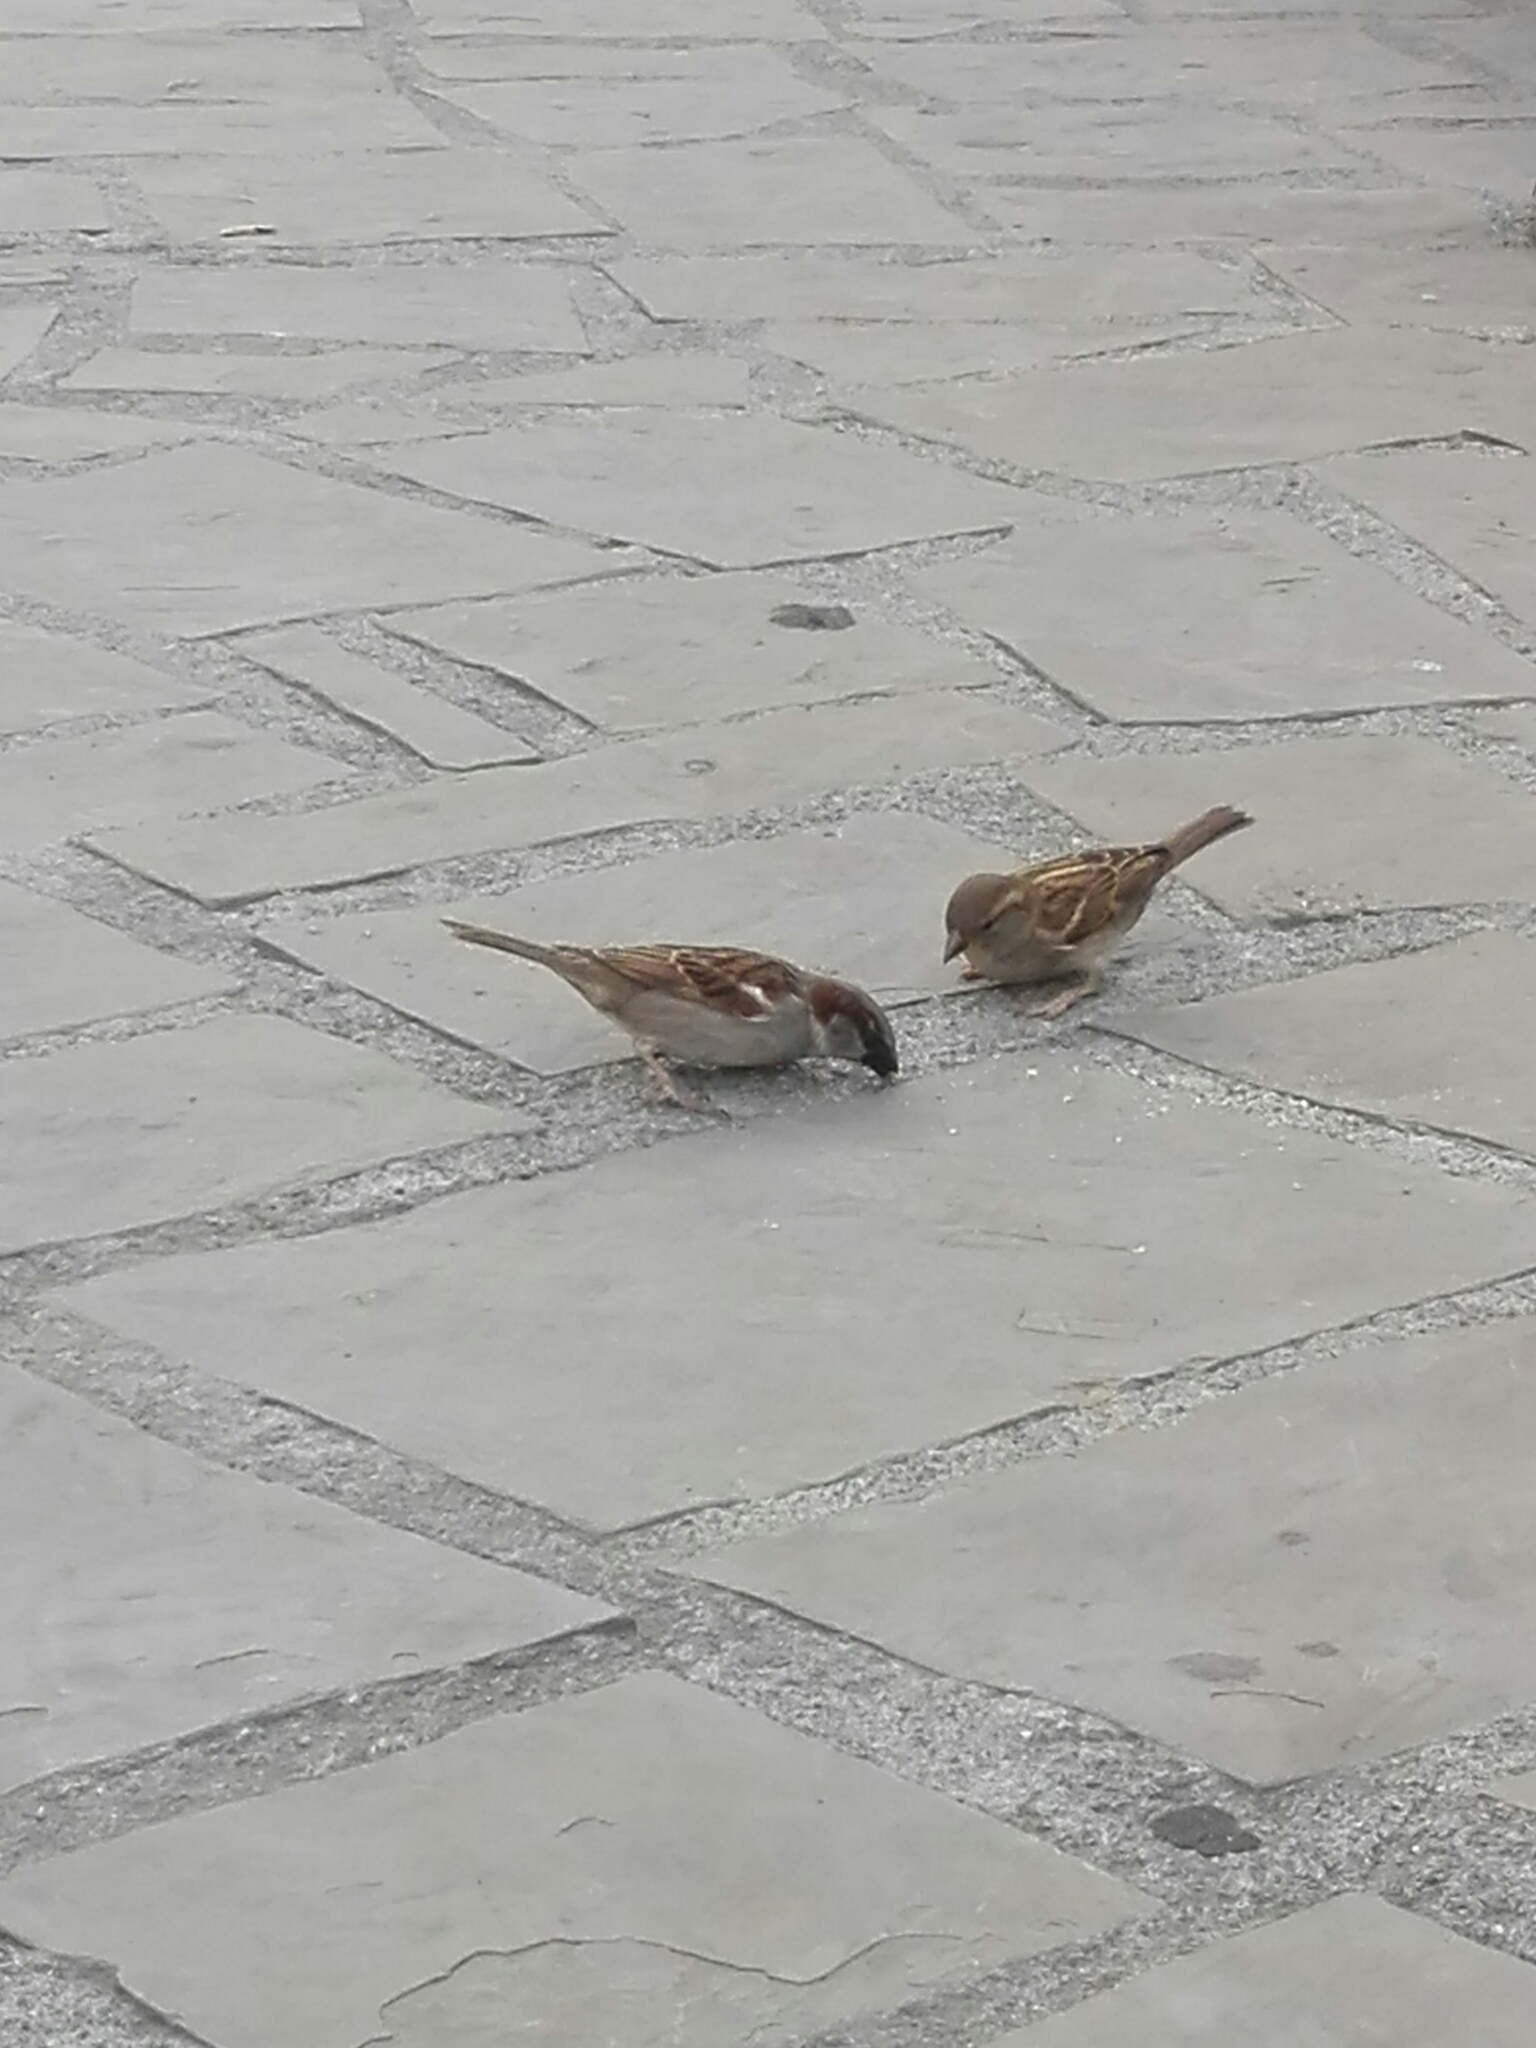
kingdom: Animalia
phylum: Chordata
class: Aves
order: Passeriformes
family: Passeridae
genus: Passer
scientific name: Passer domesticus
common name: House sparrow
